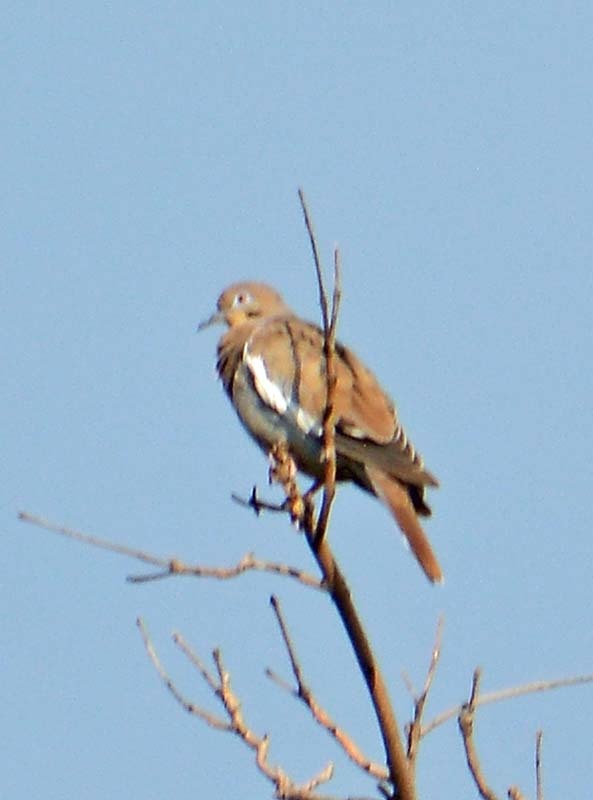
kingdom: Animalia
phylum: Chordata
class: Aves
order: Columbiformes
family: Columbidae
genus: Zenaida
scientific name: Zenaida asiatica
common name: White-winged dove
